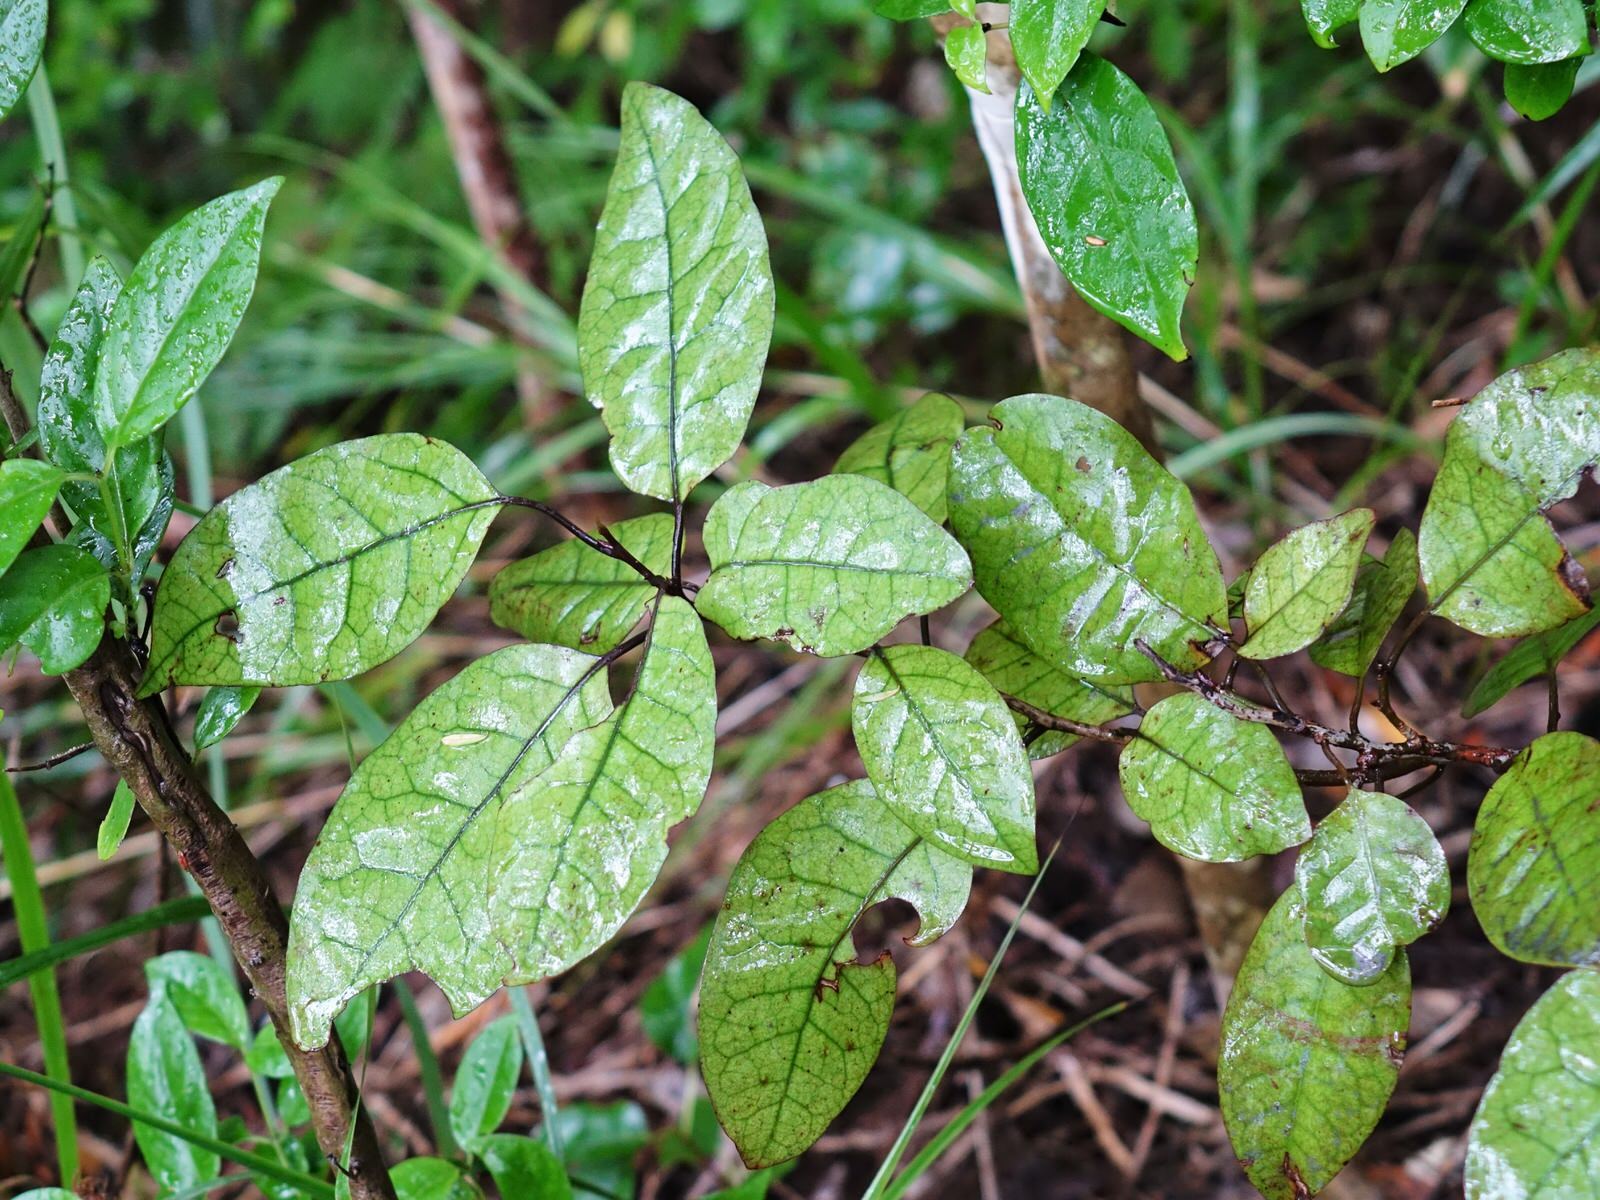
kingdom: Plantae
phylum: Tracheophyta
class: Magnoliopsida
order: Laurales
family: Lauraceae
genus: Litsea
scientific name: Litsea calicaris
